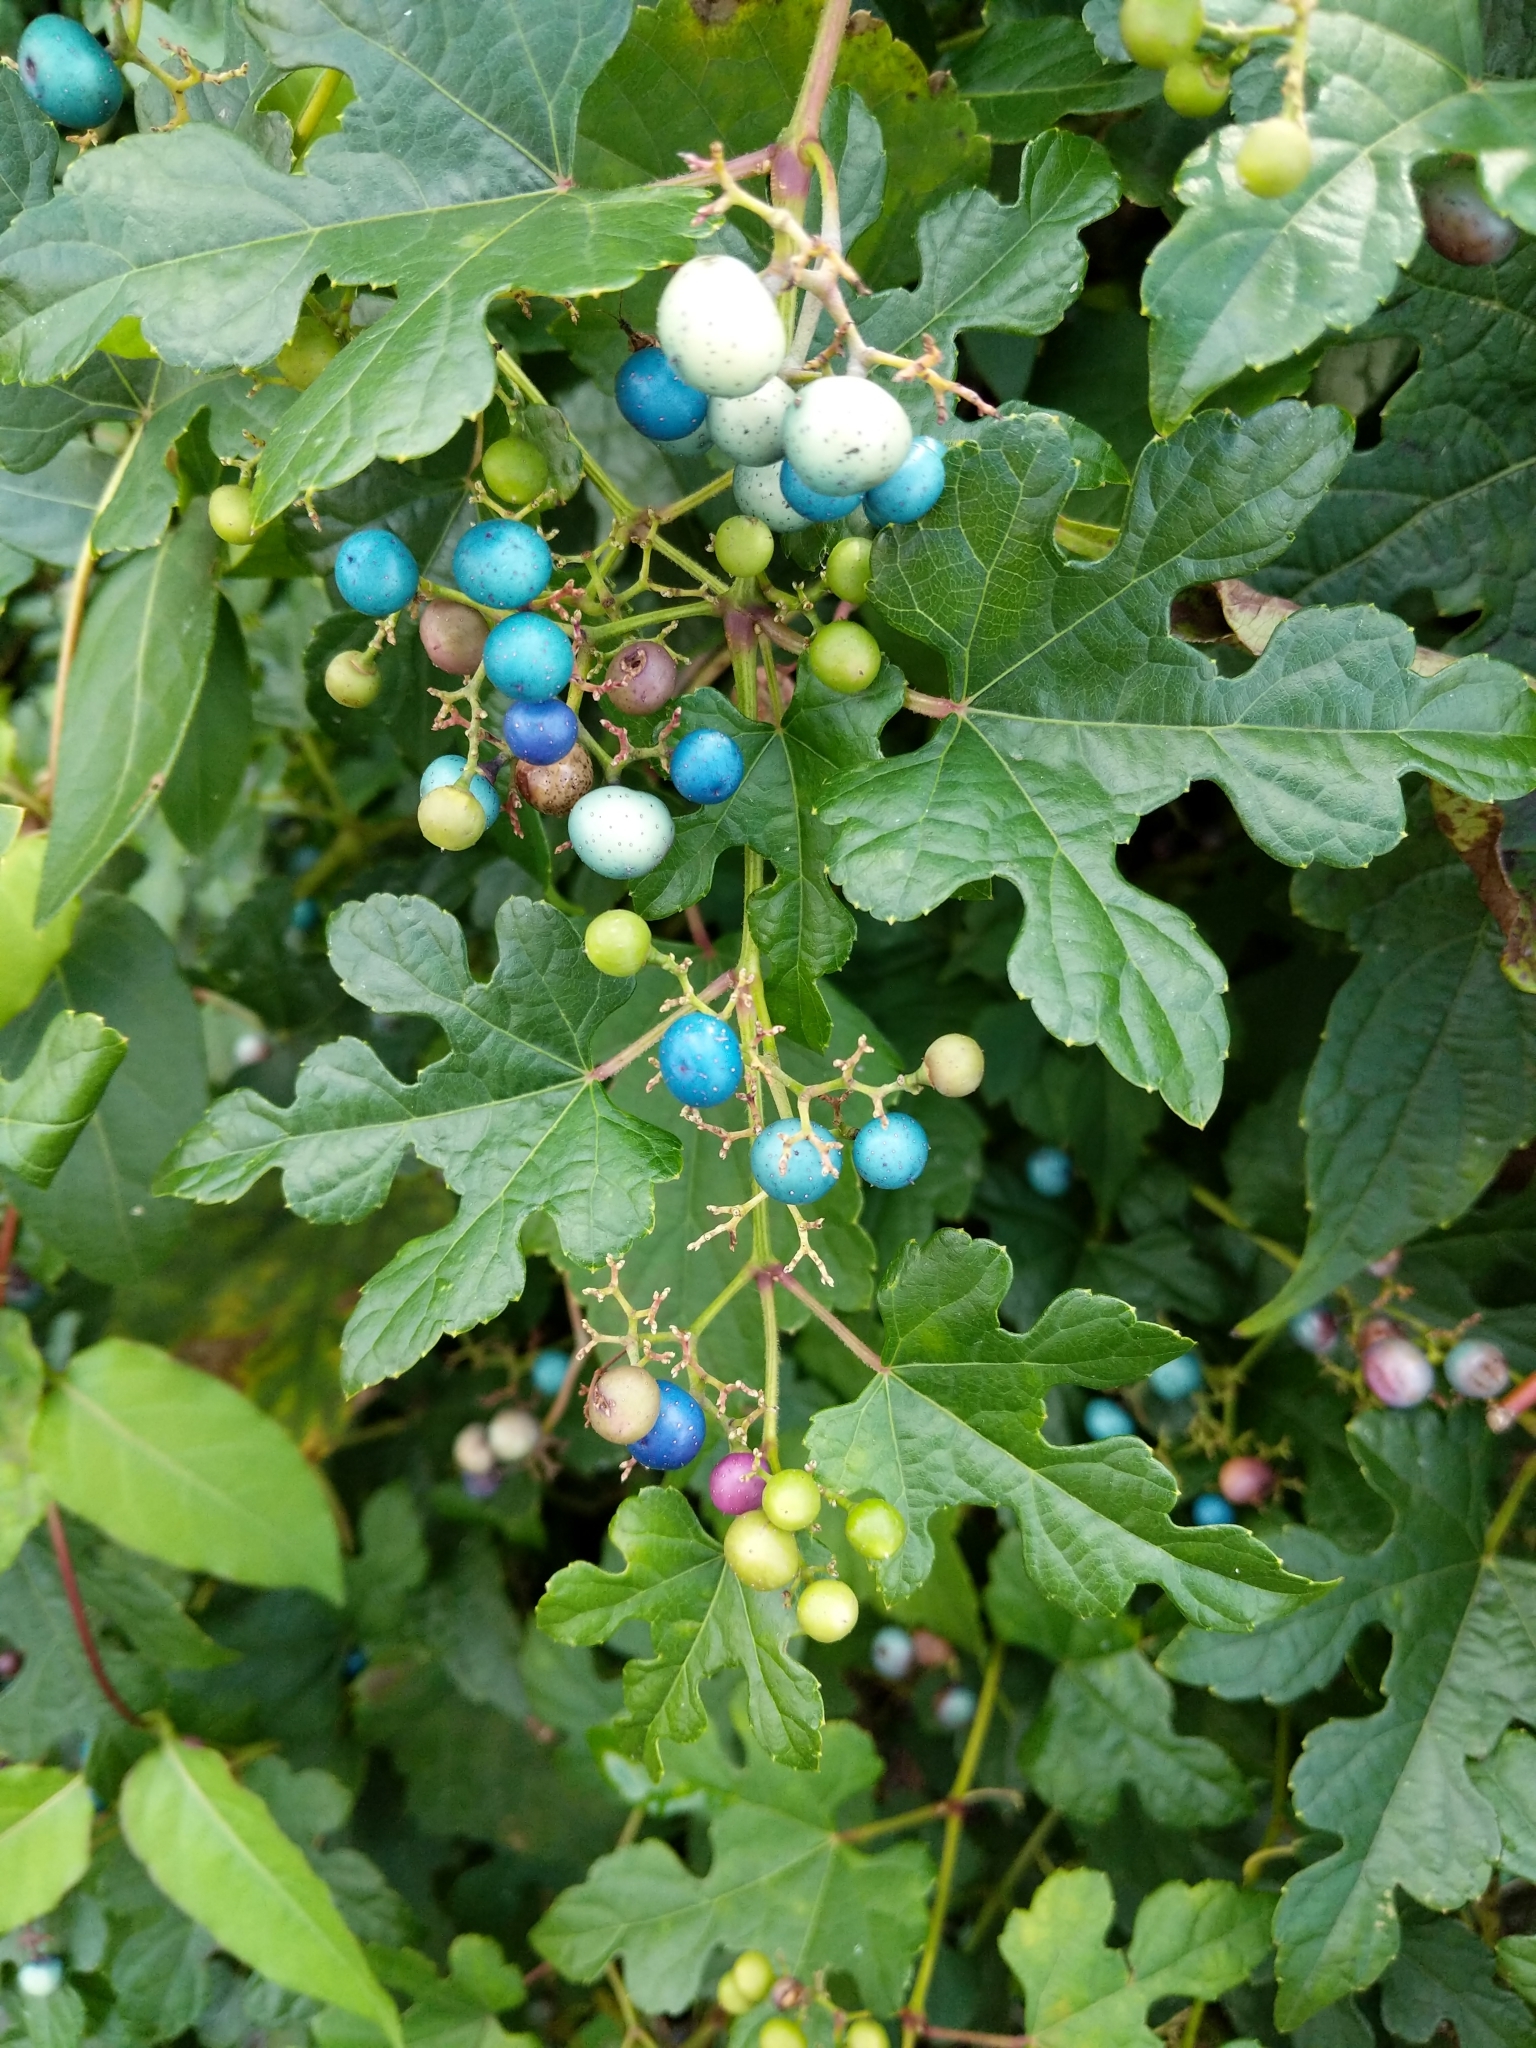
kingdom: Plantae
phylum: Tracheophyta
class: Magnoliopsida
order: Vitales
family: Vitaceae
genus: Ampelopsis
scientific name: Ampelopsis glandulosa
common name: Amur peppervine
